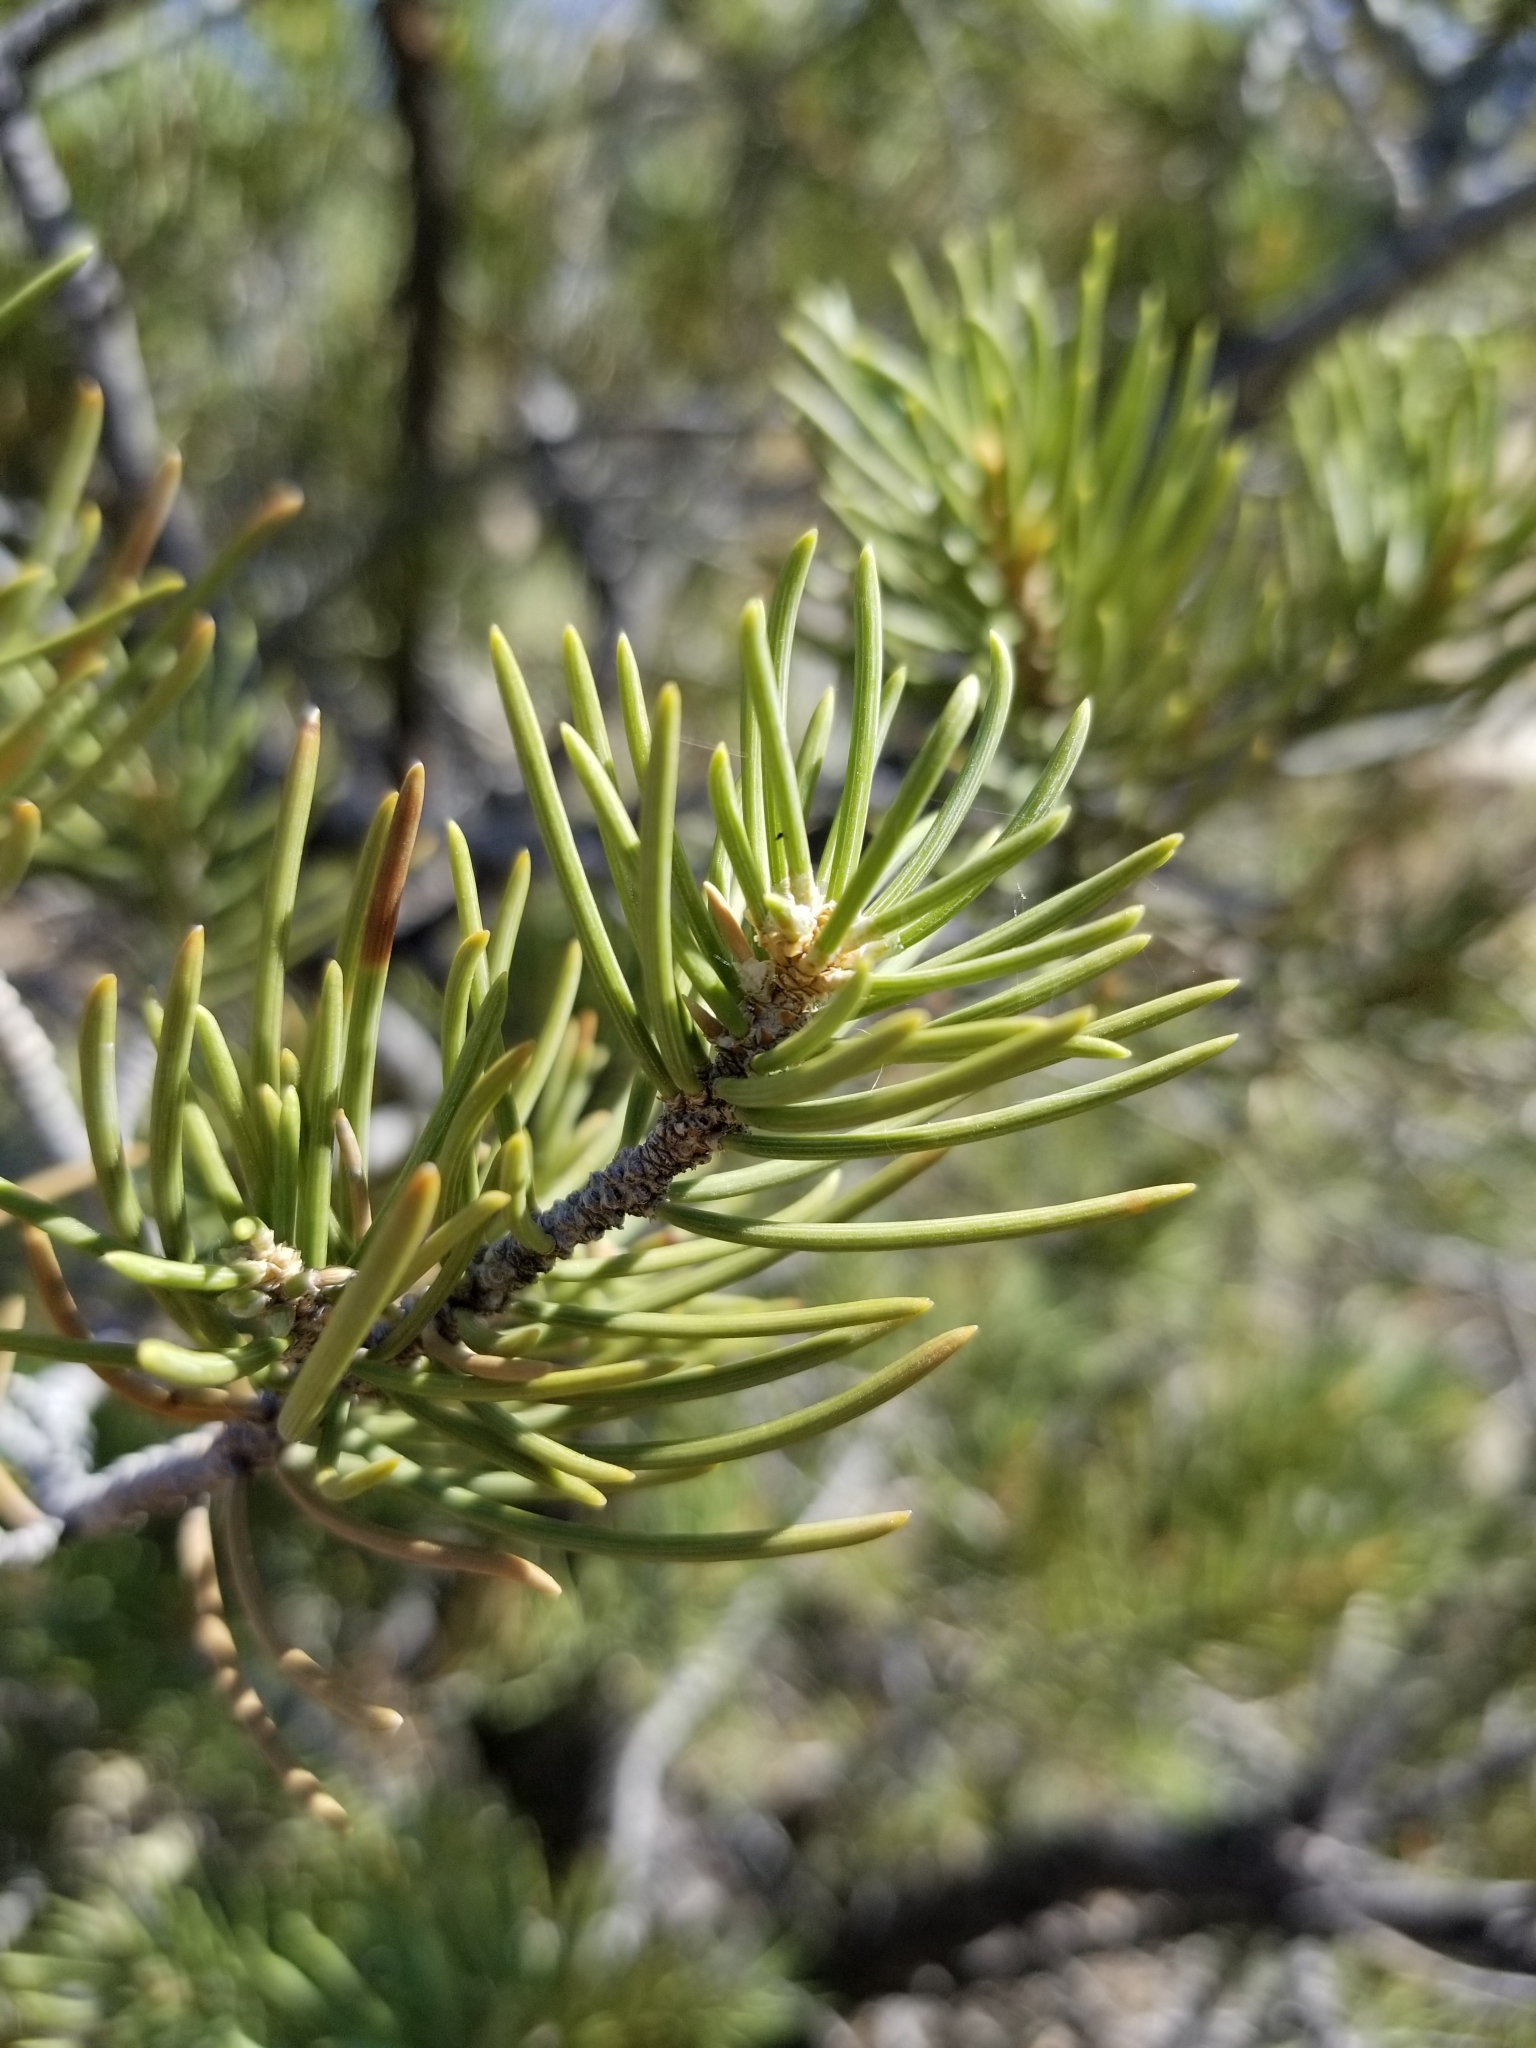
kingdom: Plantae
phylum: Tracheophyta
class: Pinopsida
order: Pinales
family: Pinaceae
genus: Pinus
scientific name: Pinus monophylla
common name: One-leaved nut pine
